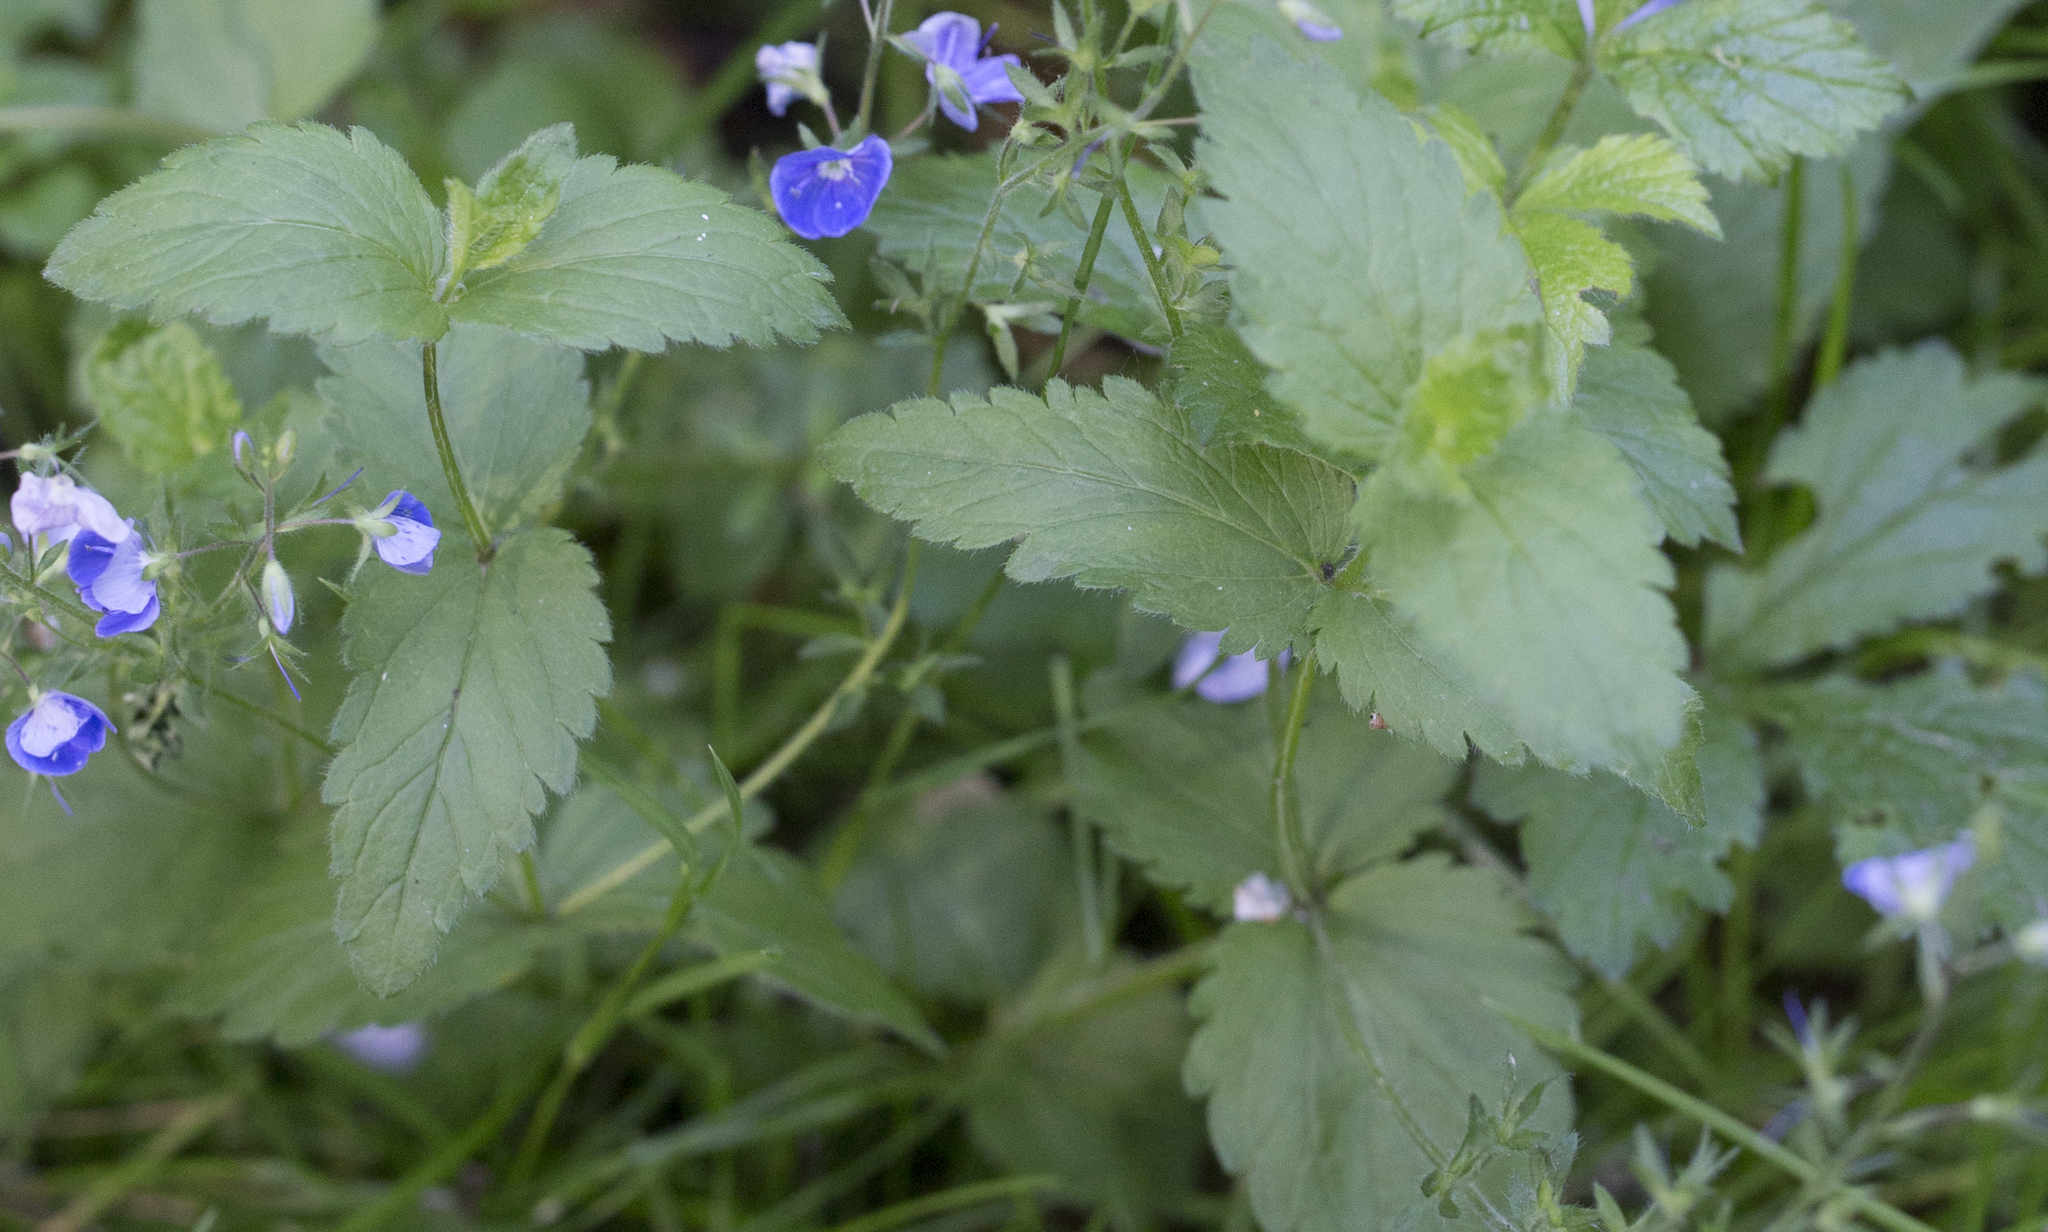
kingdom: Plantae
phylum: Tracheophyta
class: Magnoliopsida
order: Lamiales
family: Plantaginaceae
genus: Veronica
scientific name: Veronica chamaedrys
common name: Germander speedwell
